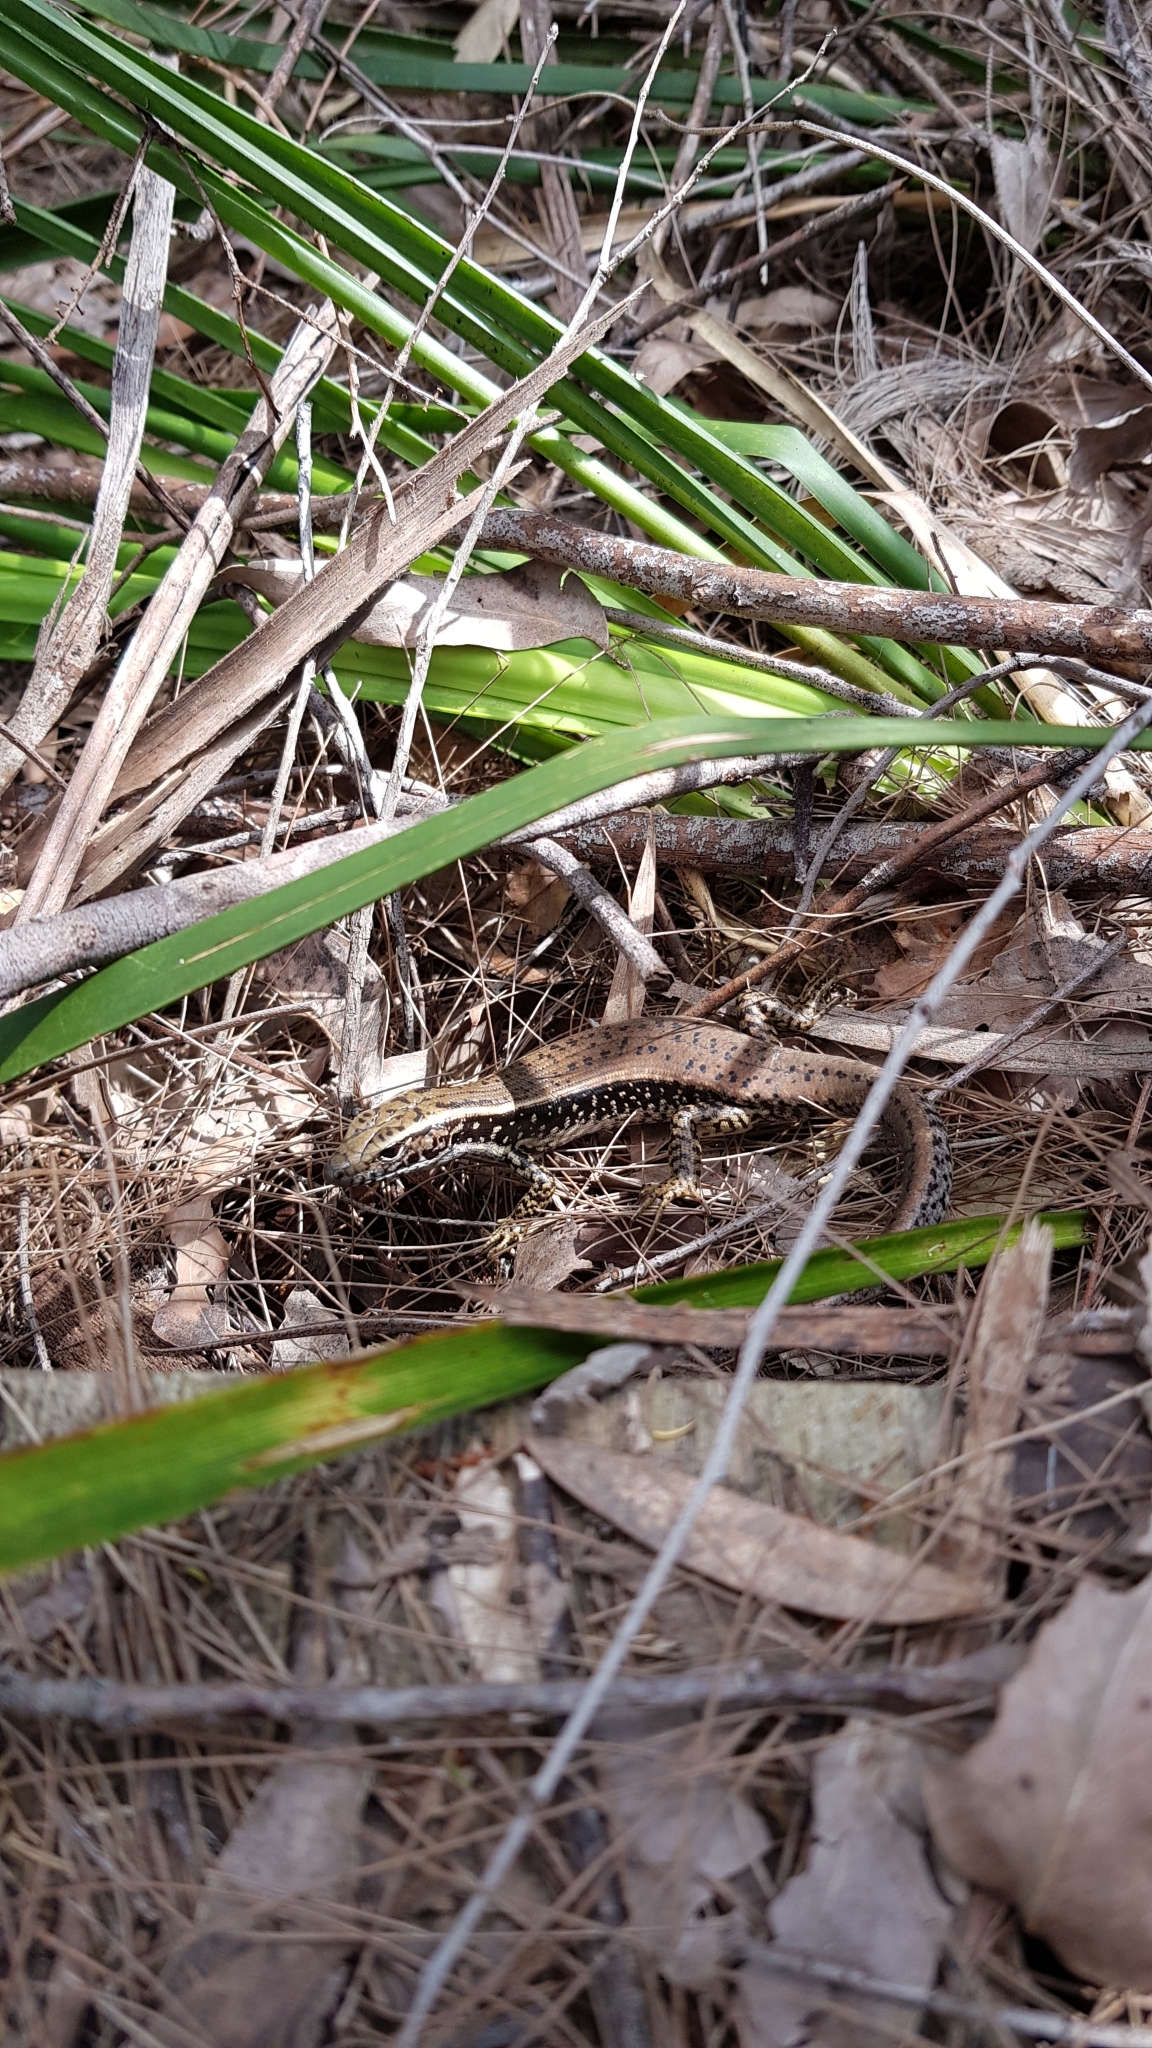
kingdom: Animalia
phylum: Chordata
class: Squamata
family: Scincidae
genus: Eulamprus
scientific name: Eulamprus quoyii
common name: Eastern water skink
